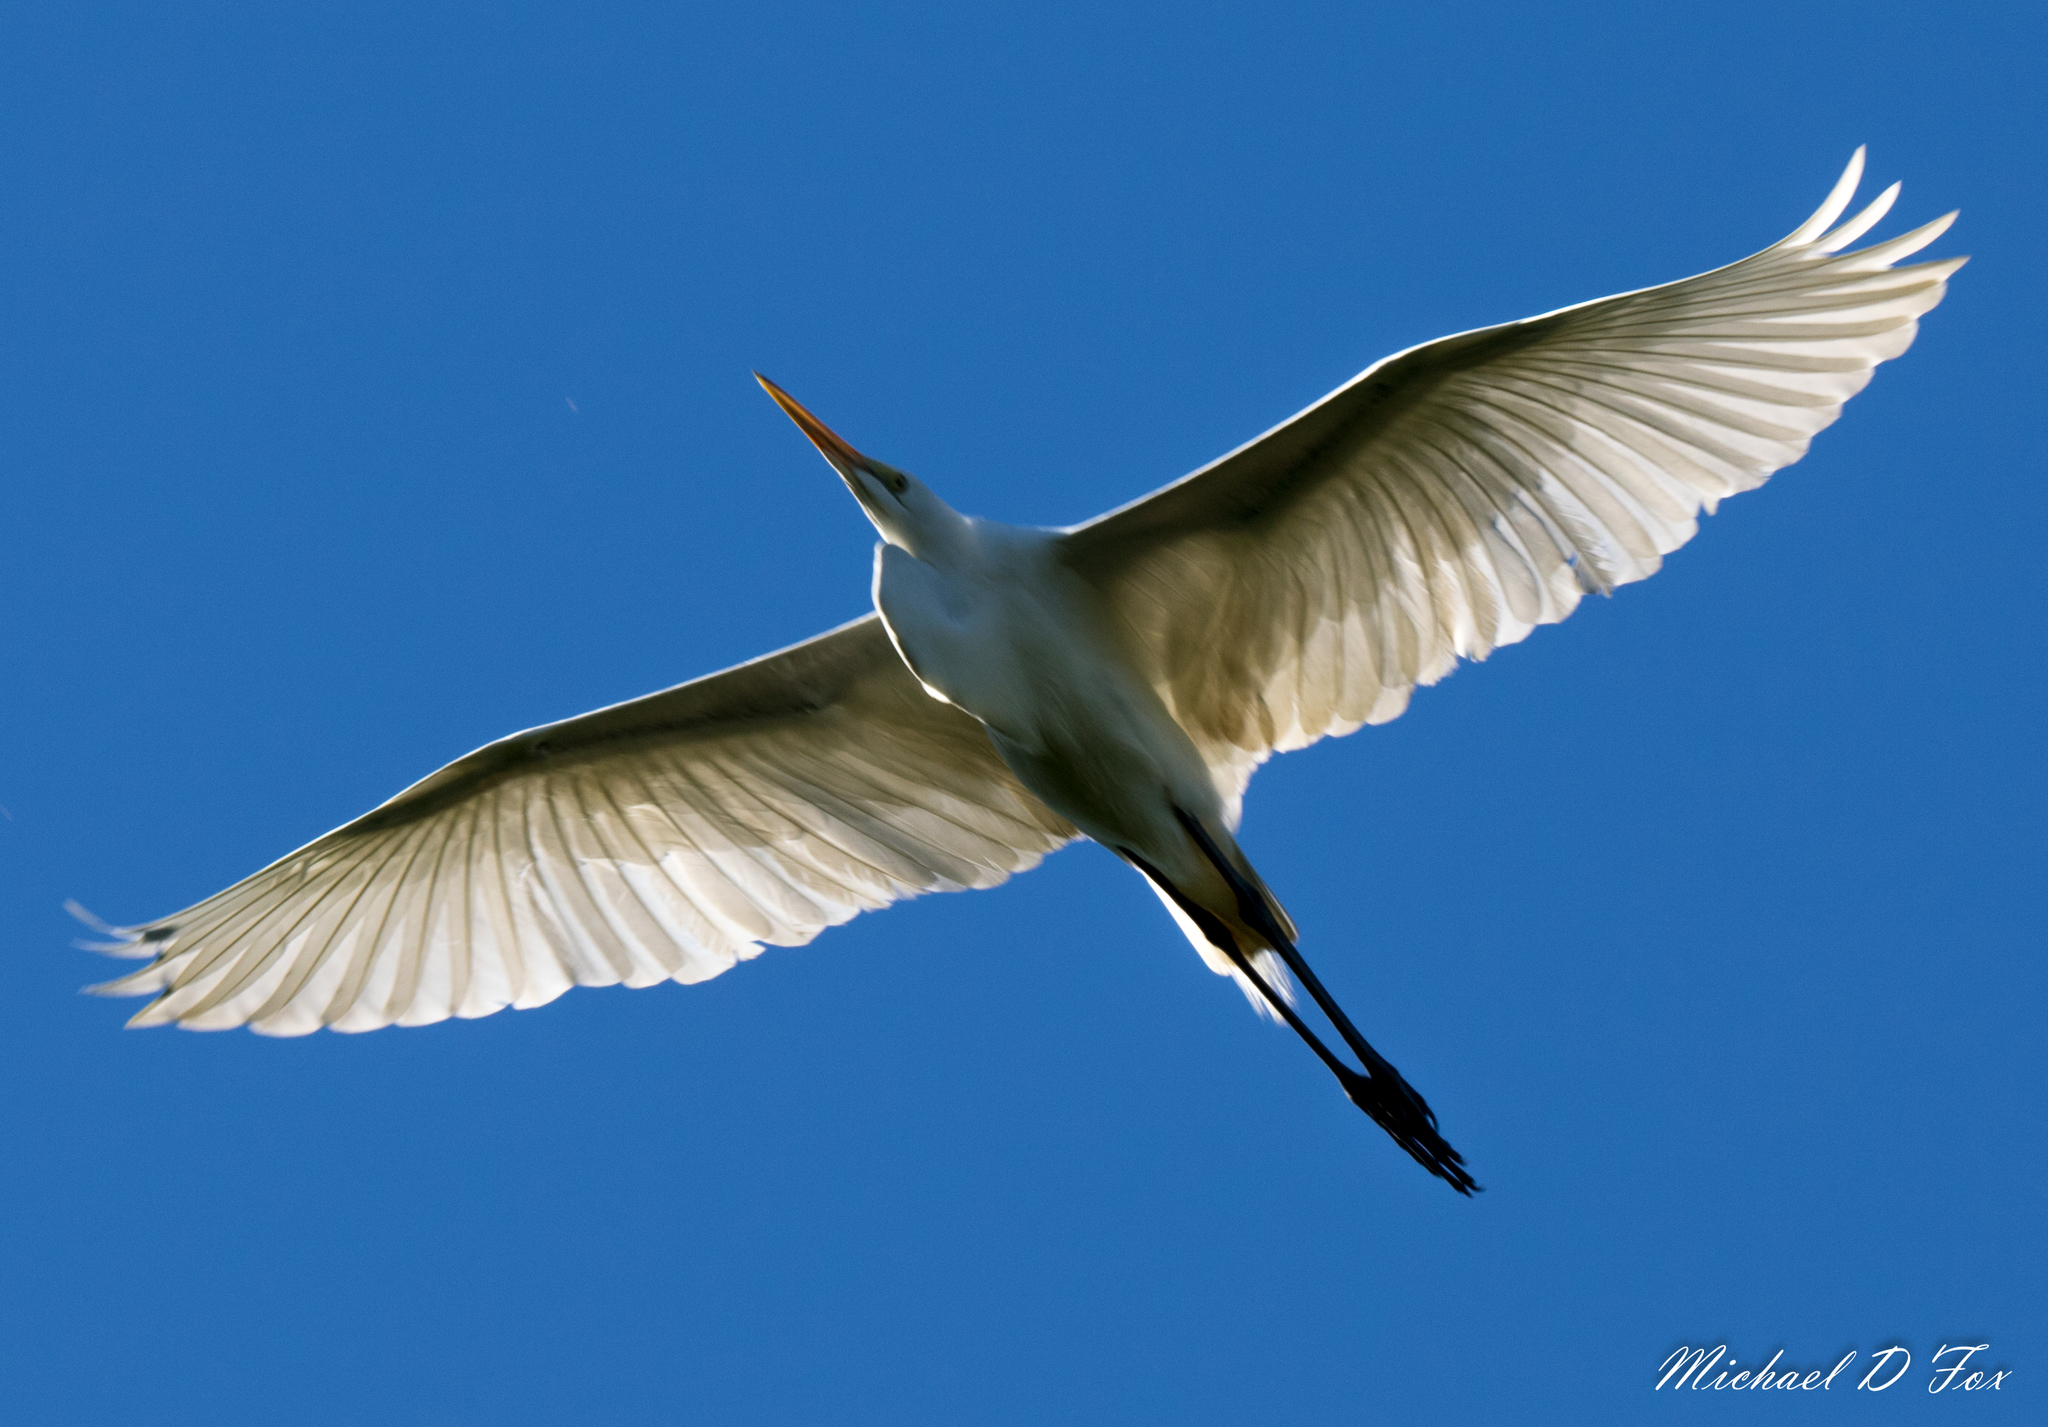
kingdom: Animalia
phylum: Chordata
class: Aves
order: Pelecaniformes
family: Ardeidae
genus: Ardea
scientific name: Ardea alba
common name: Great egret
